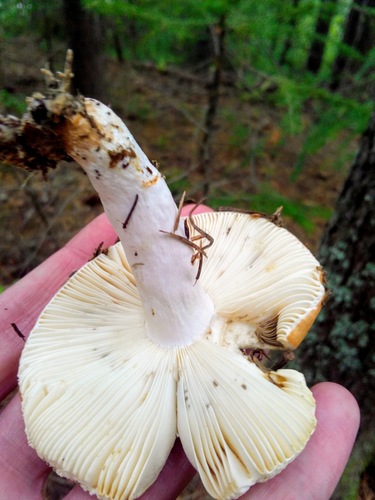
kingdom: Fungi
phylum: Basidiomycota
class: Agaricomycetes
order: Russulales
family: Russulaceae
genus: Russula
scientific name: Russula
